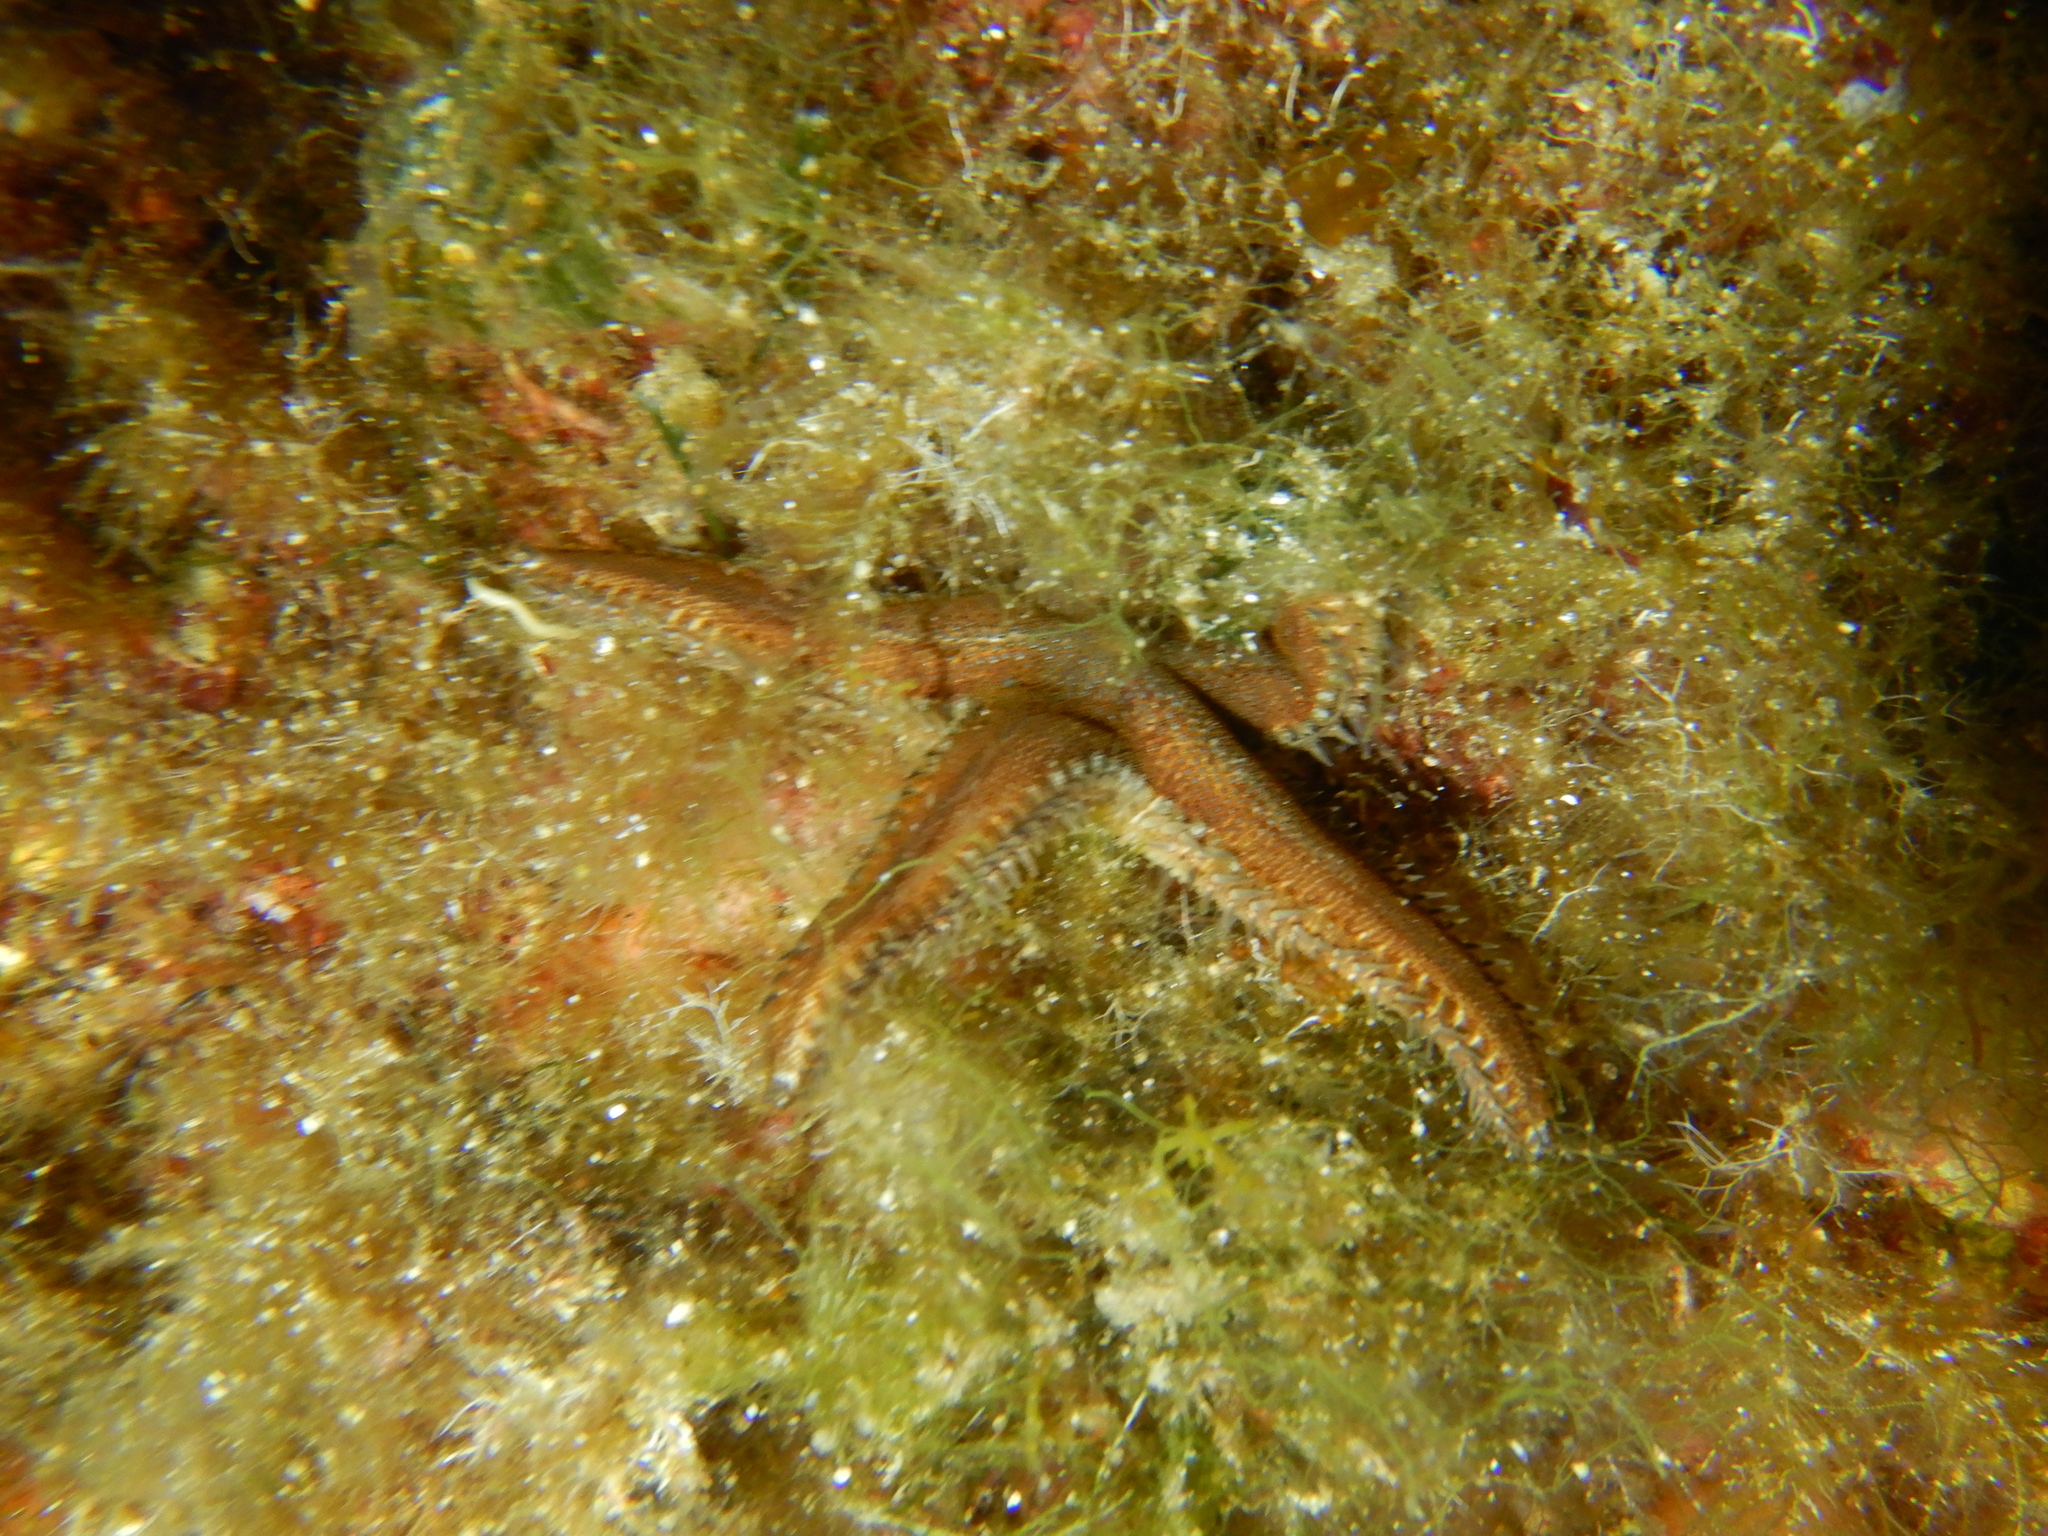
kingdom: Animalia
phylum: Echinodermata
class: Asteroidea
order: Paxillosida
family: Astropectinidae
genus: Astropecten
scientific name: Astropecten spinulosus
